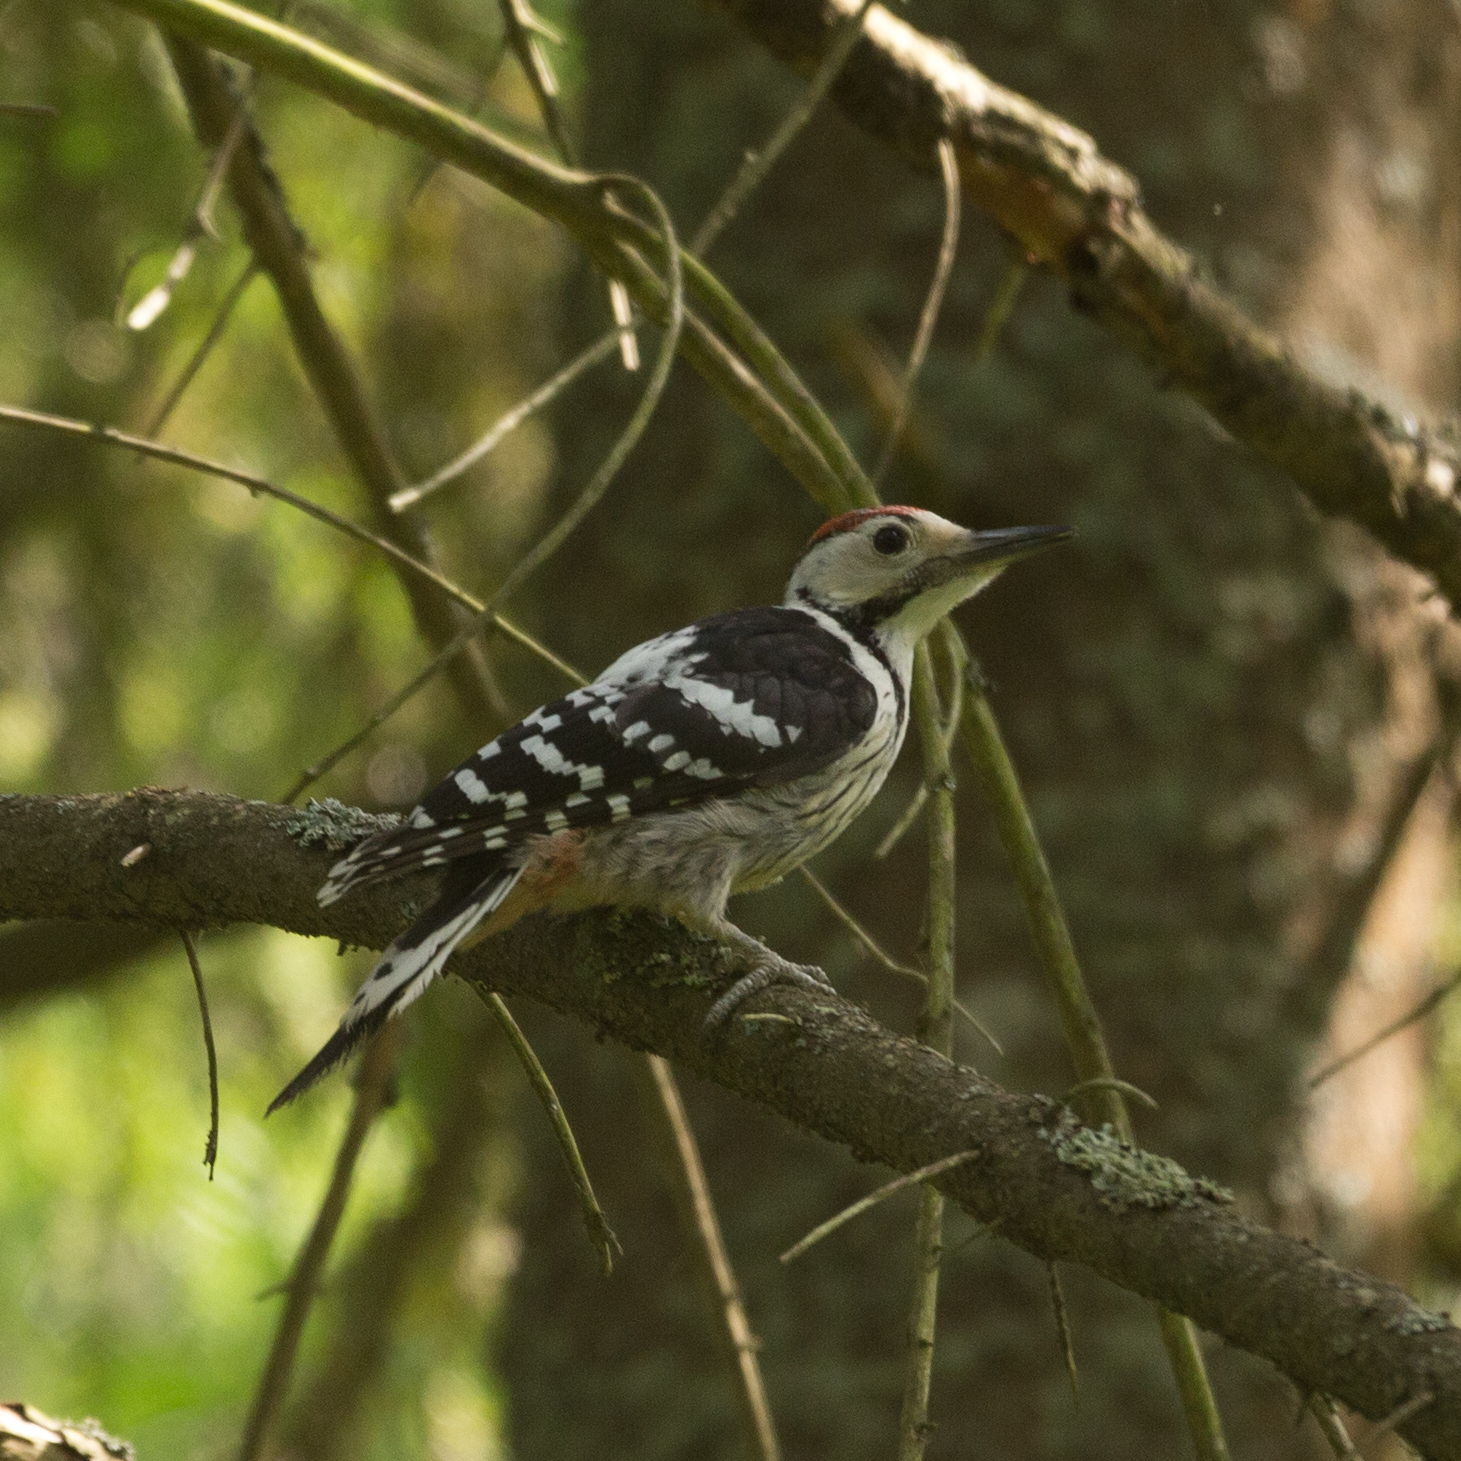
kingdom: Animalia
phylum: Chordata
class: Aves
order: Piciformes
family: Picidae
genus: Dendrocopos
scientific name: Dendrocopos leucotos
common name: White-backed woodpecker
